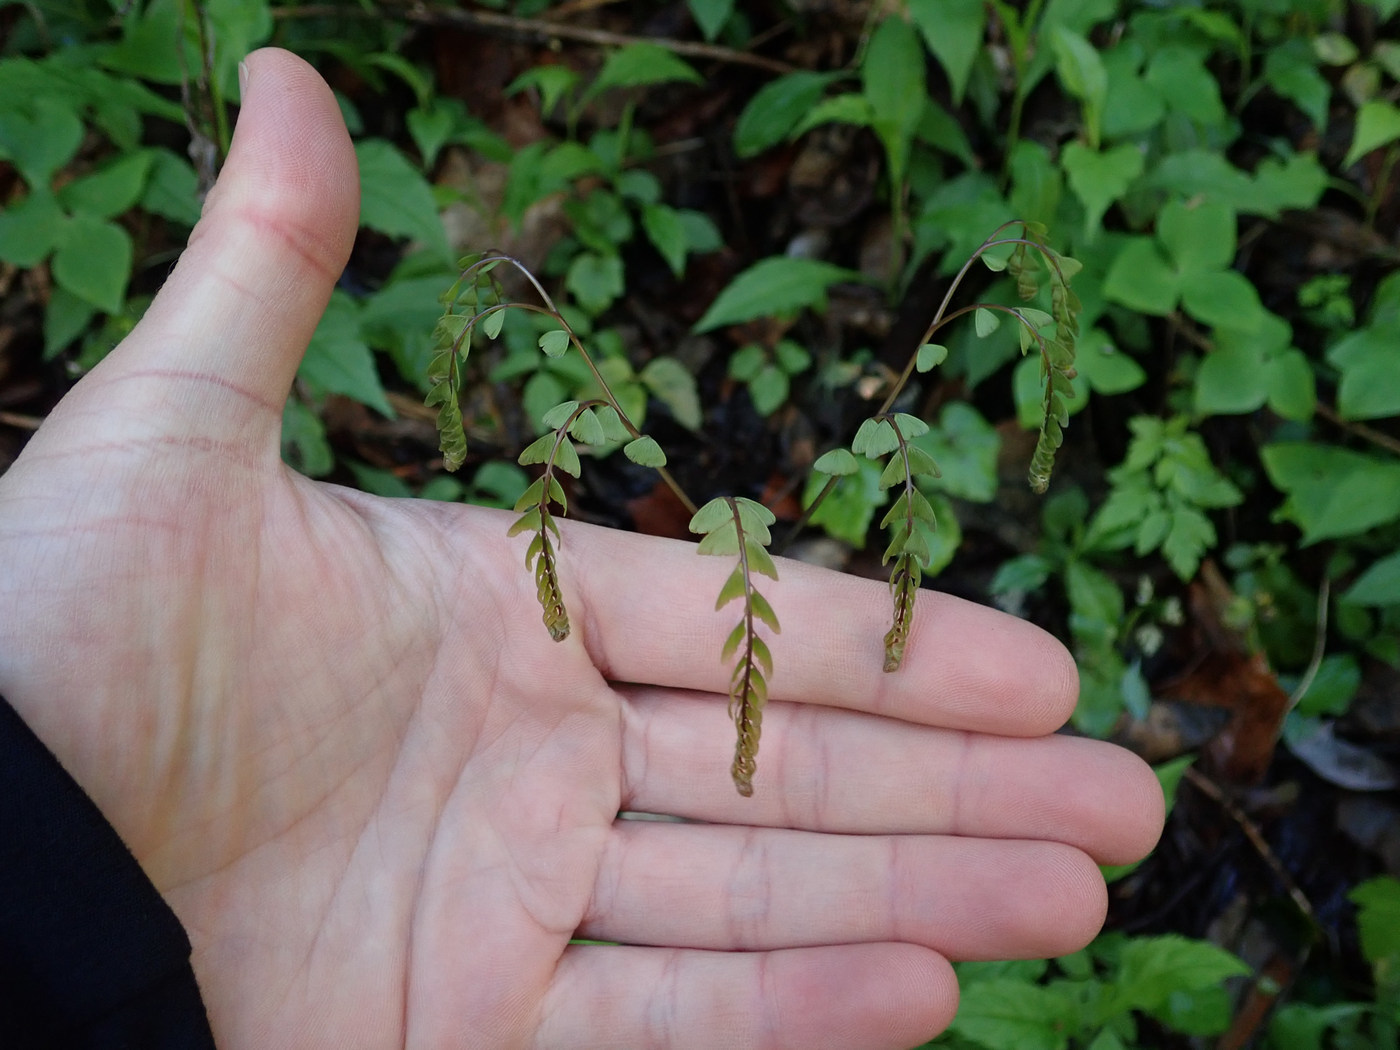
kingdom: Plantae
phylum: Tracheophyta
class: Polypodiopsida
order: Polypodiales
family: Pteridaceae
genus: Adiantum
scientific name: Adiantum pedatum
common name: Five-finger fern
